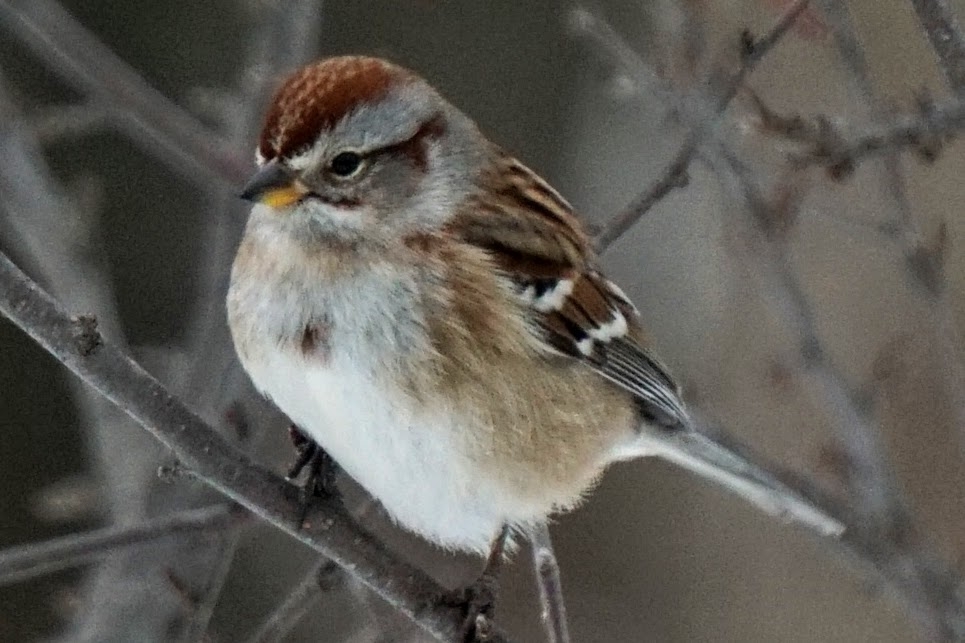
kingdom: Animalia
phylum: Chordata
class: Aves
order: Passeriformes
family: Passerellidae
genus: Spizelloides
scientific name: Spizelloides arborea
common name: American tree sparrow
